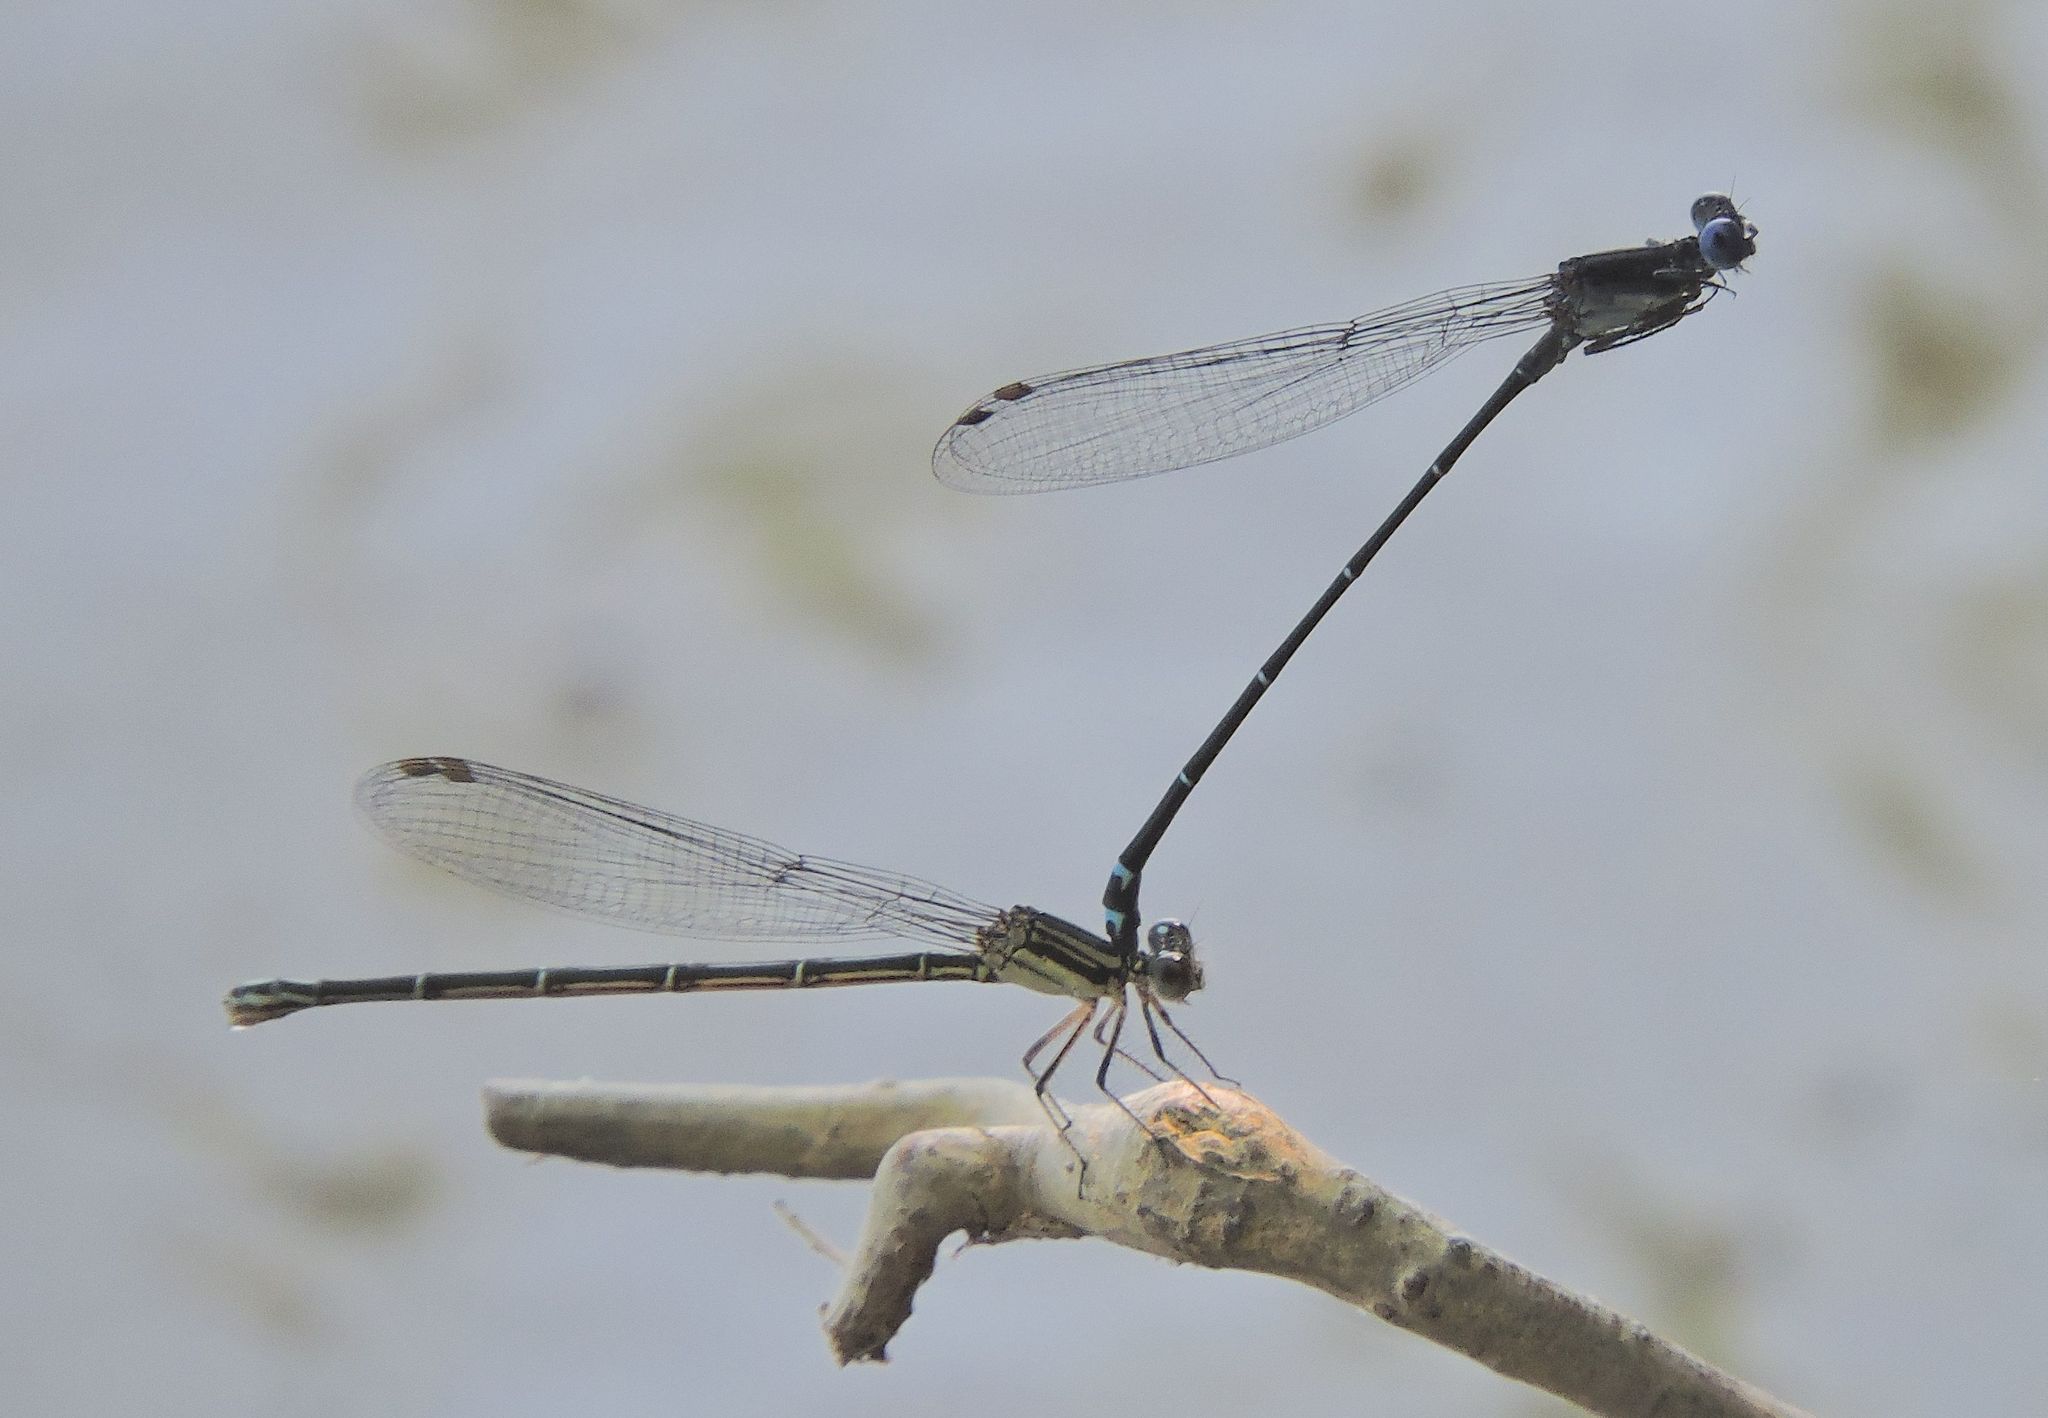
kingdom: Animalia
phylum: Arthropoda
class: Insecta
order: Odonata
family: Coenagrionidae
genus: Argia
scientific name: Argia translata
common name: Dusky dancer
